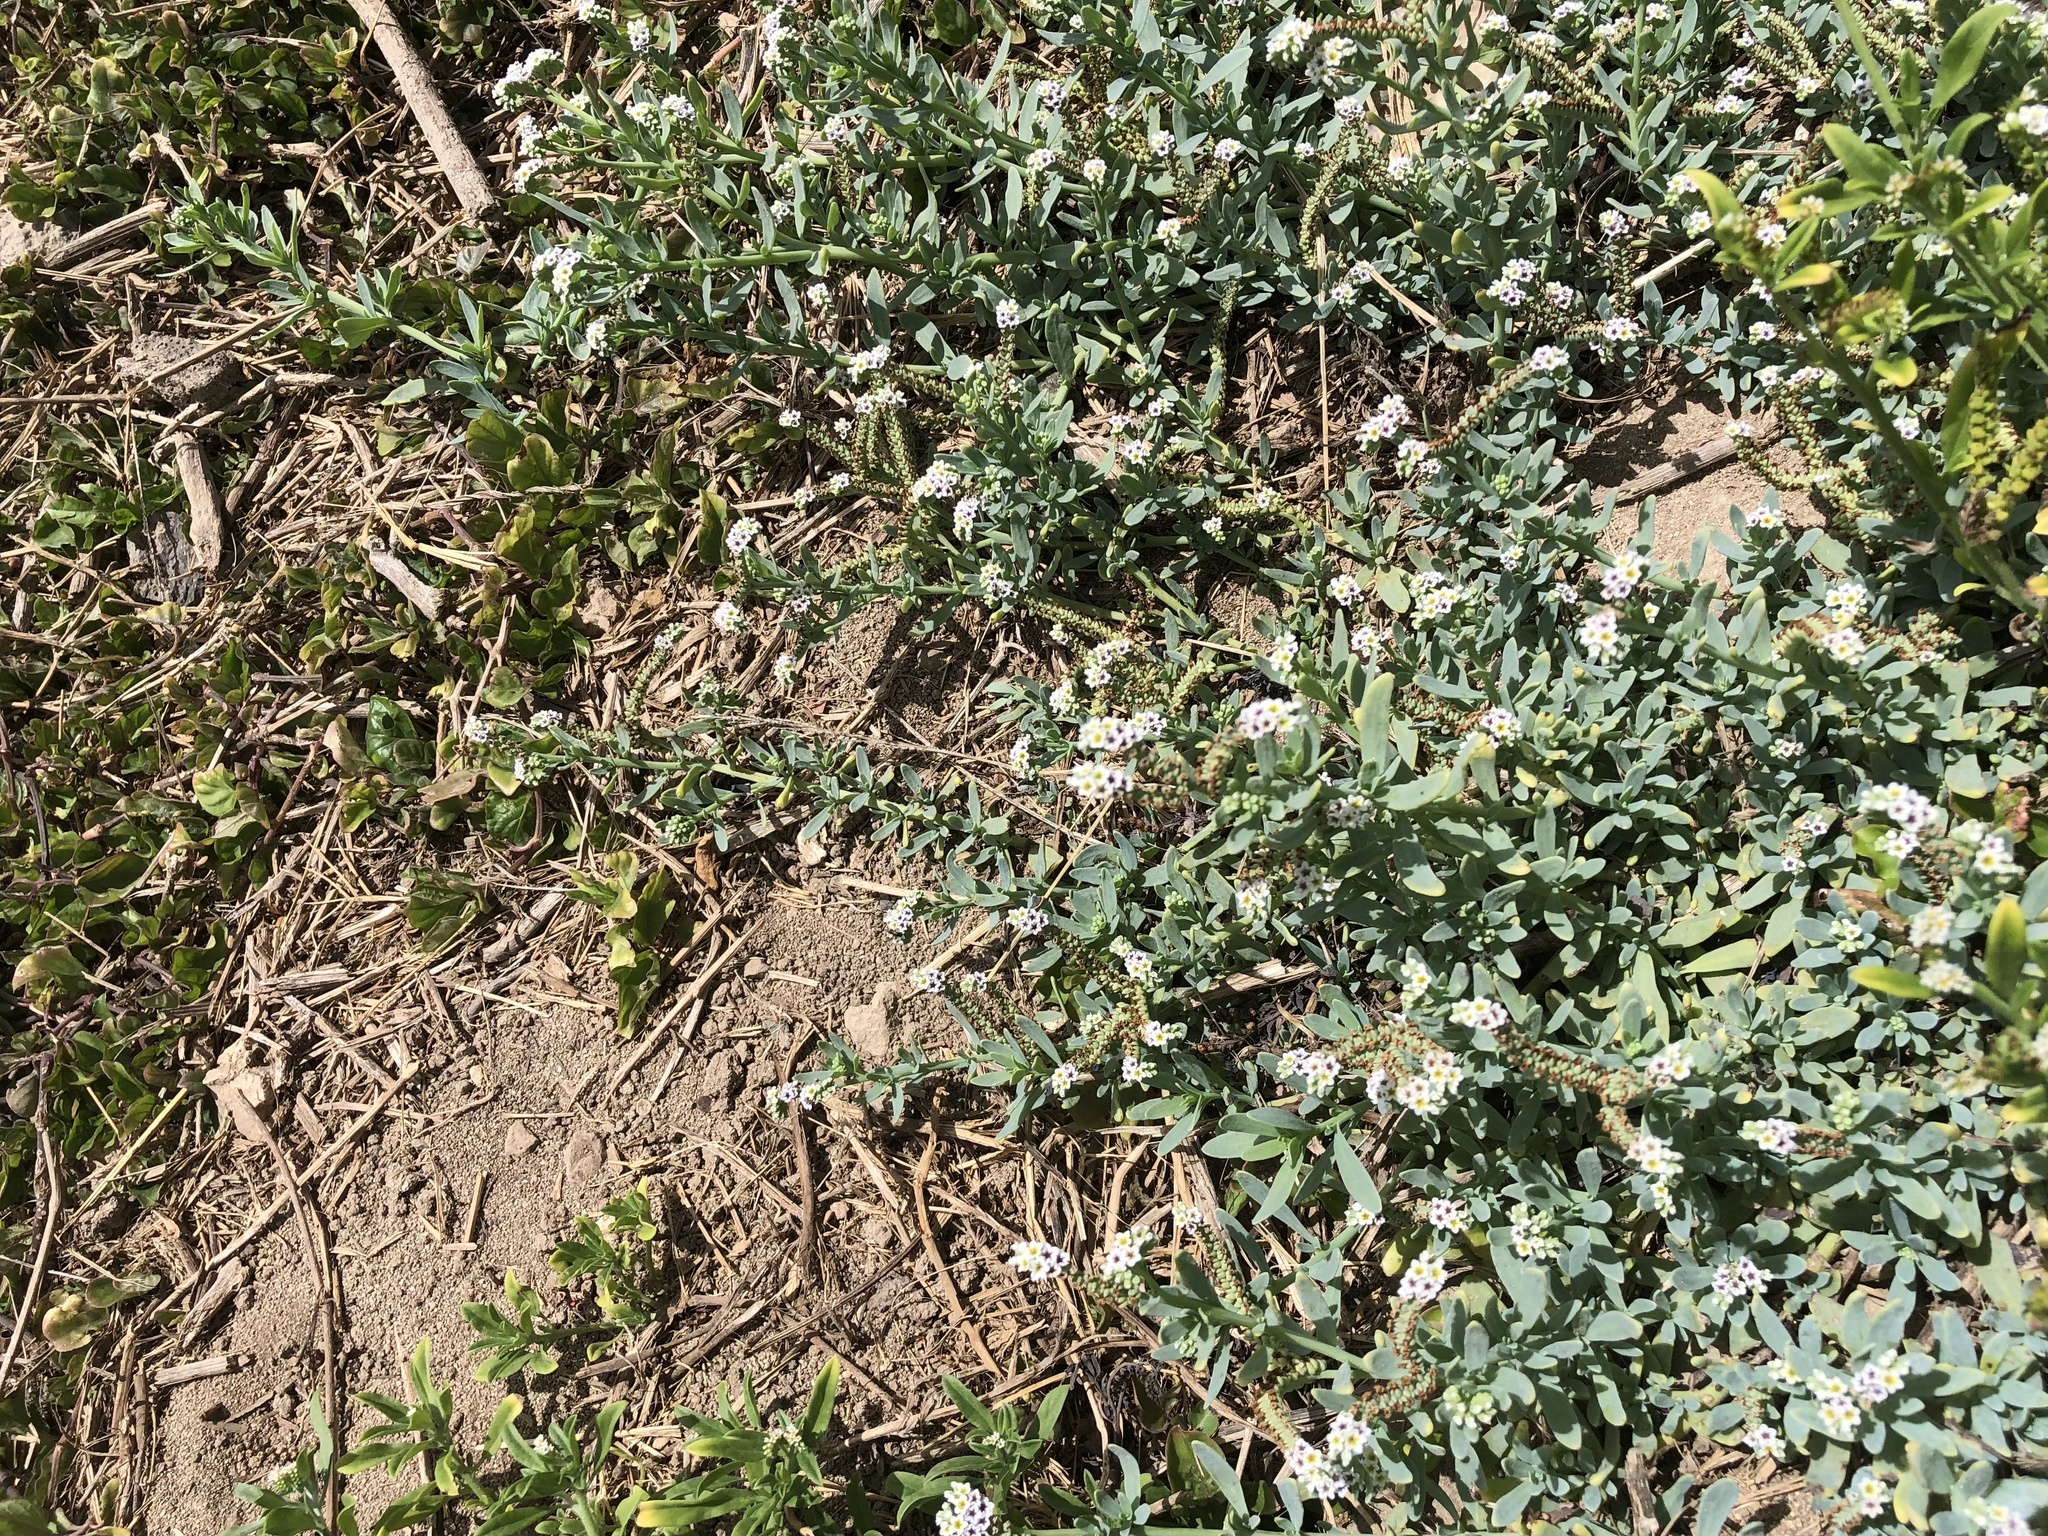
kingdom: Plantae
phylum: Tracheophyta
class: Magnoliopsida
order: Boraginales
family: Heliotropiaceae
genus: Heliotropium
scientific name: Heliotropium curassavicum
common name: Seaside heliotrope
